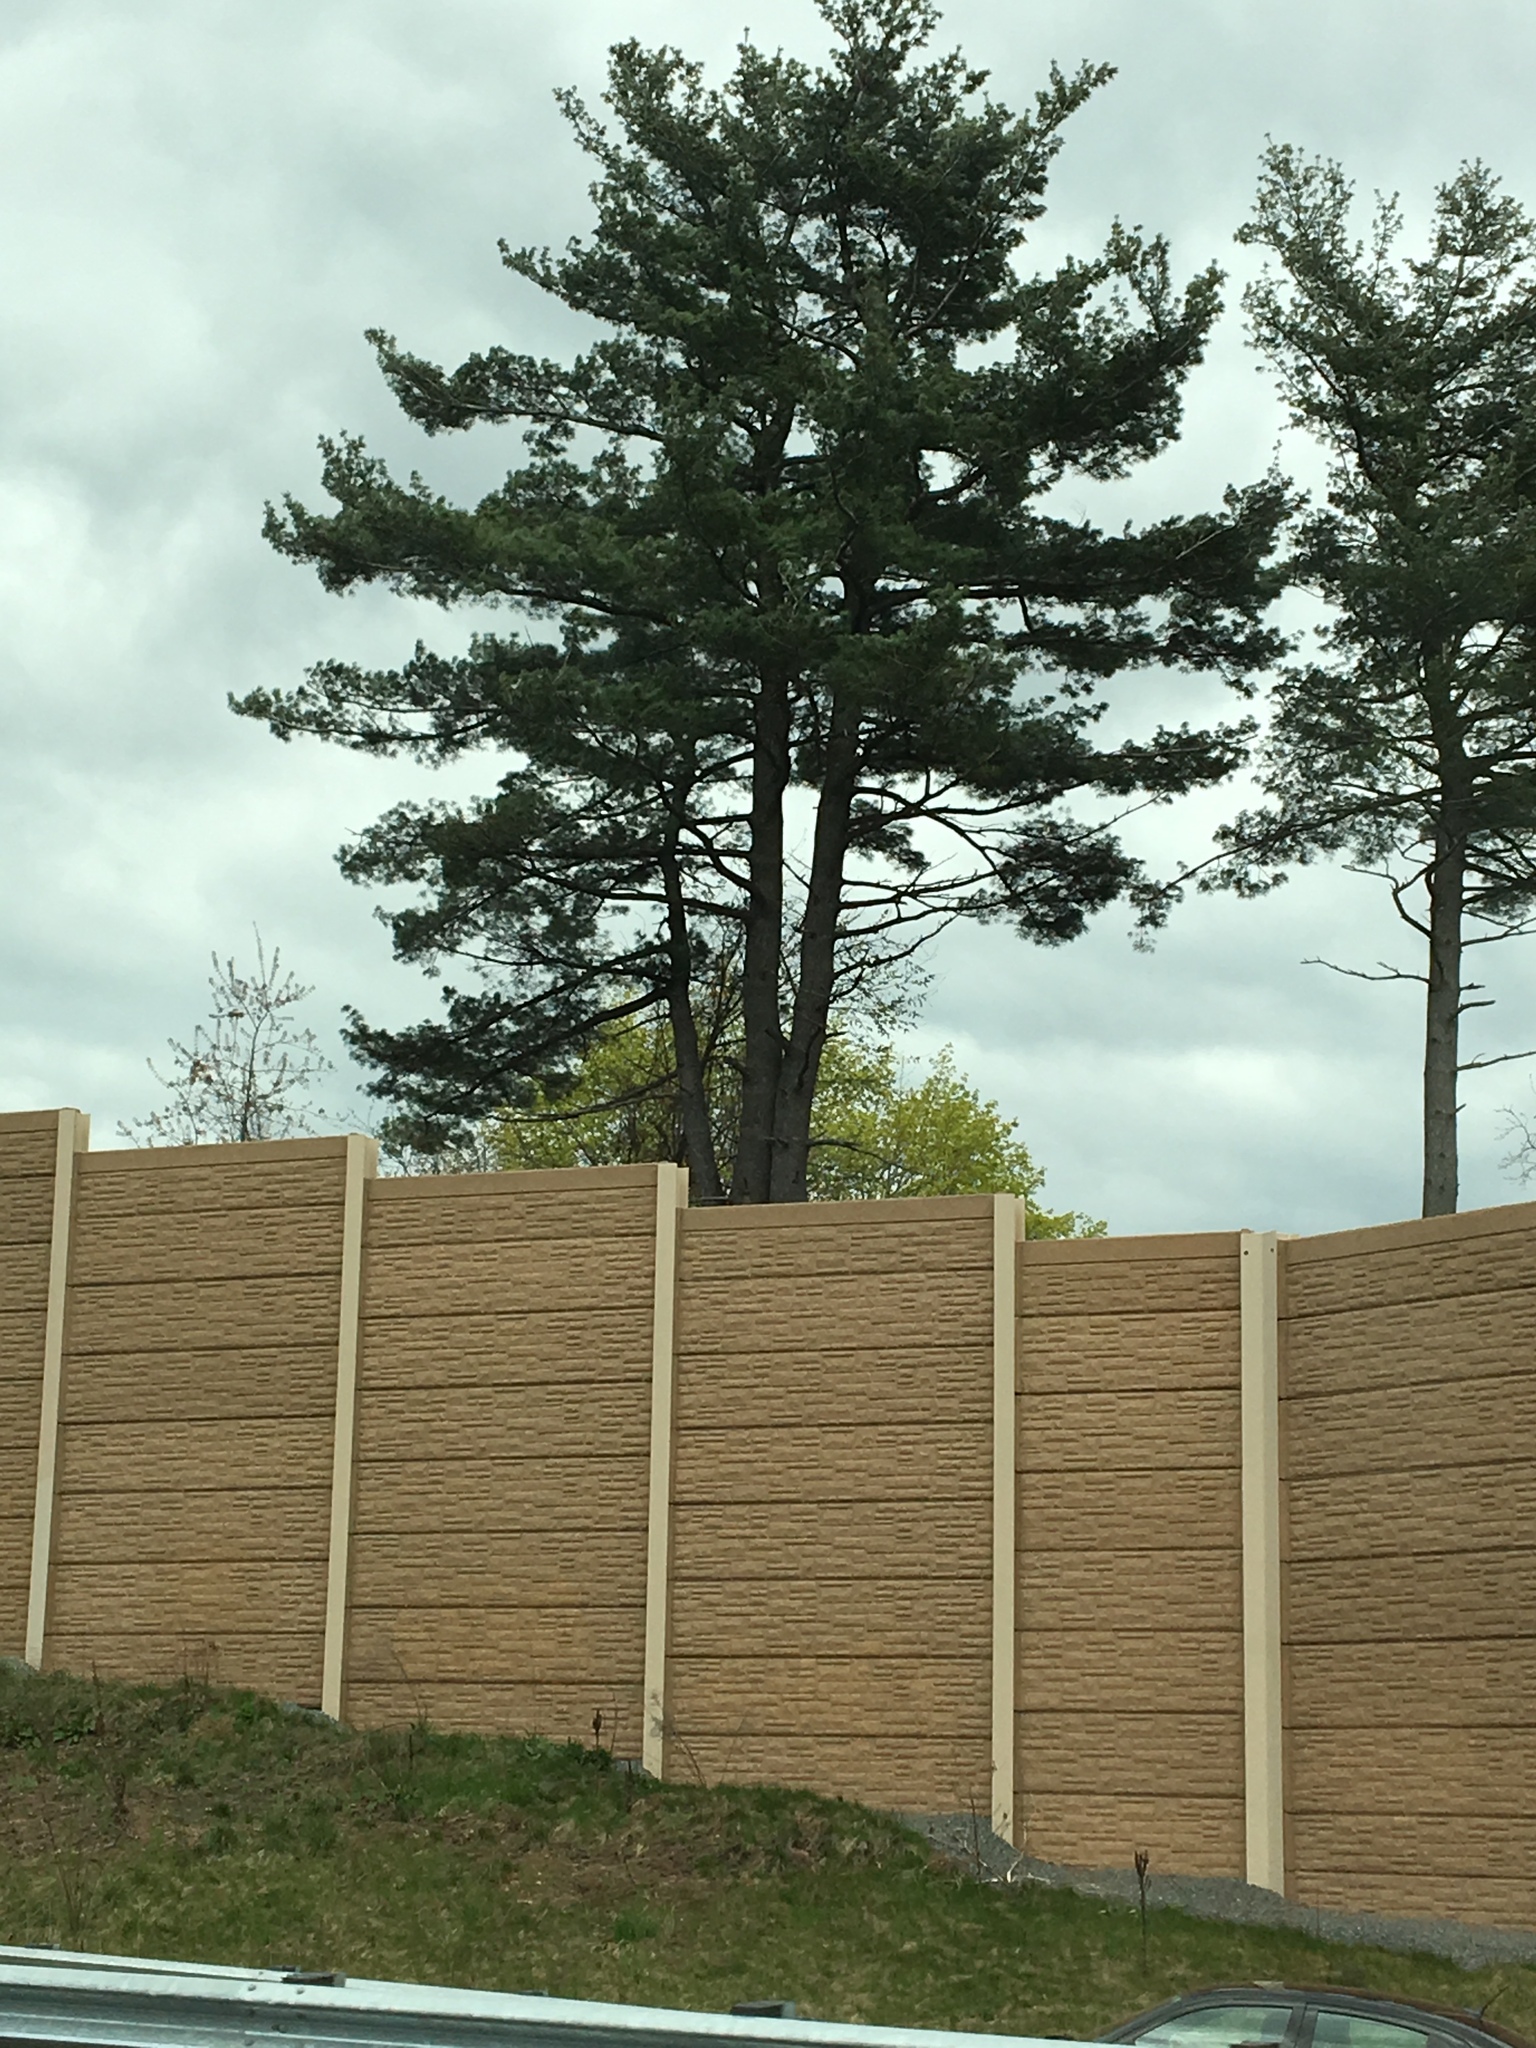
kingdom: Plantae
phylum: Tracheophyta
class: Pinopsida
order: Pinales
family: Pinaceae
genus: Pinus
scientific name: Pinus strobus
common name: Weymouth pine
